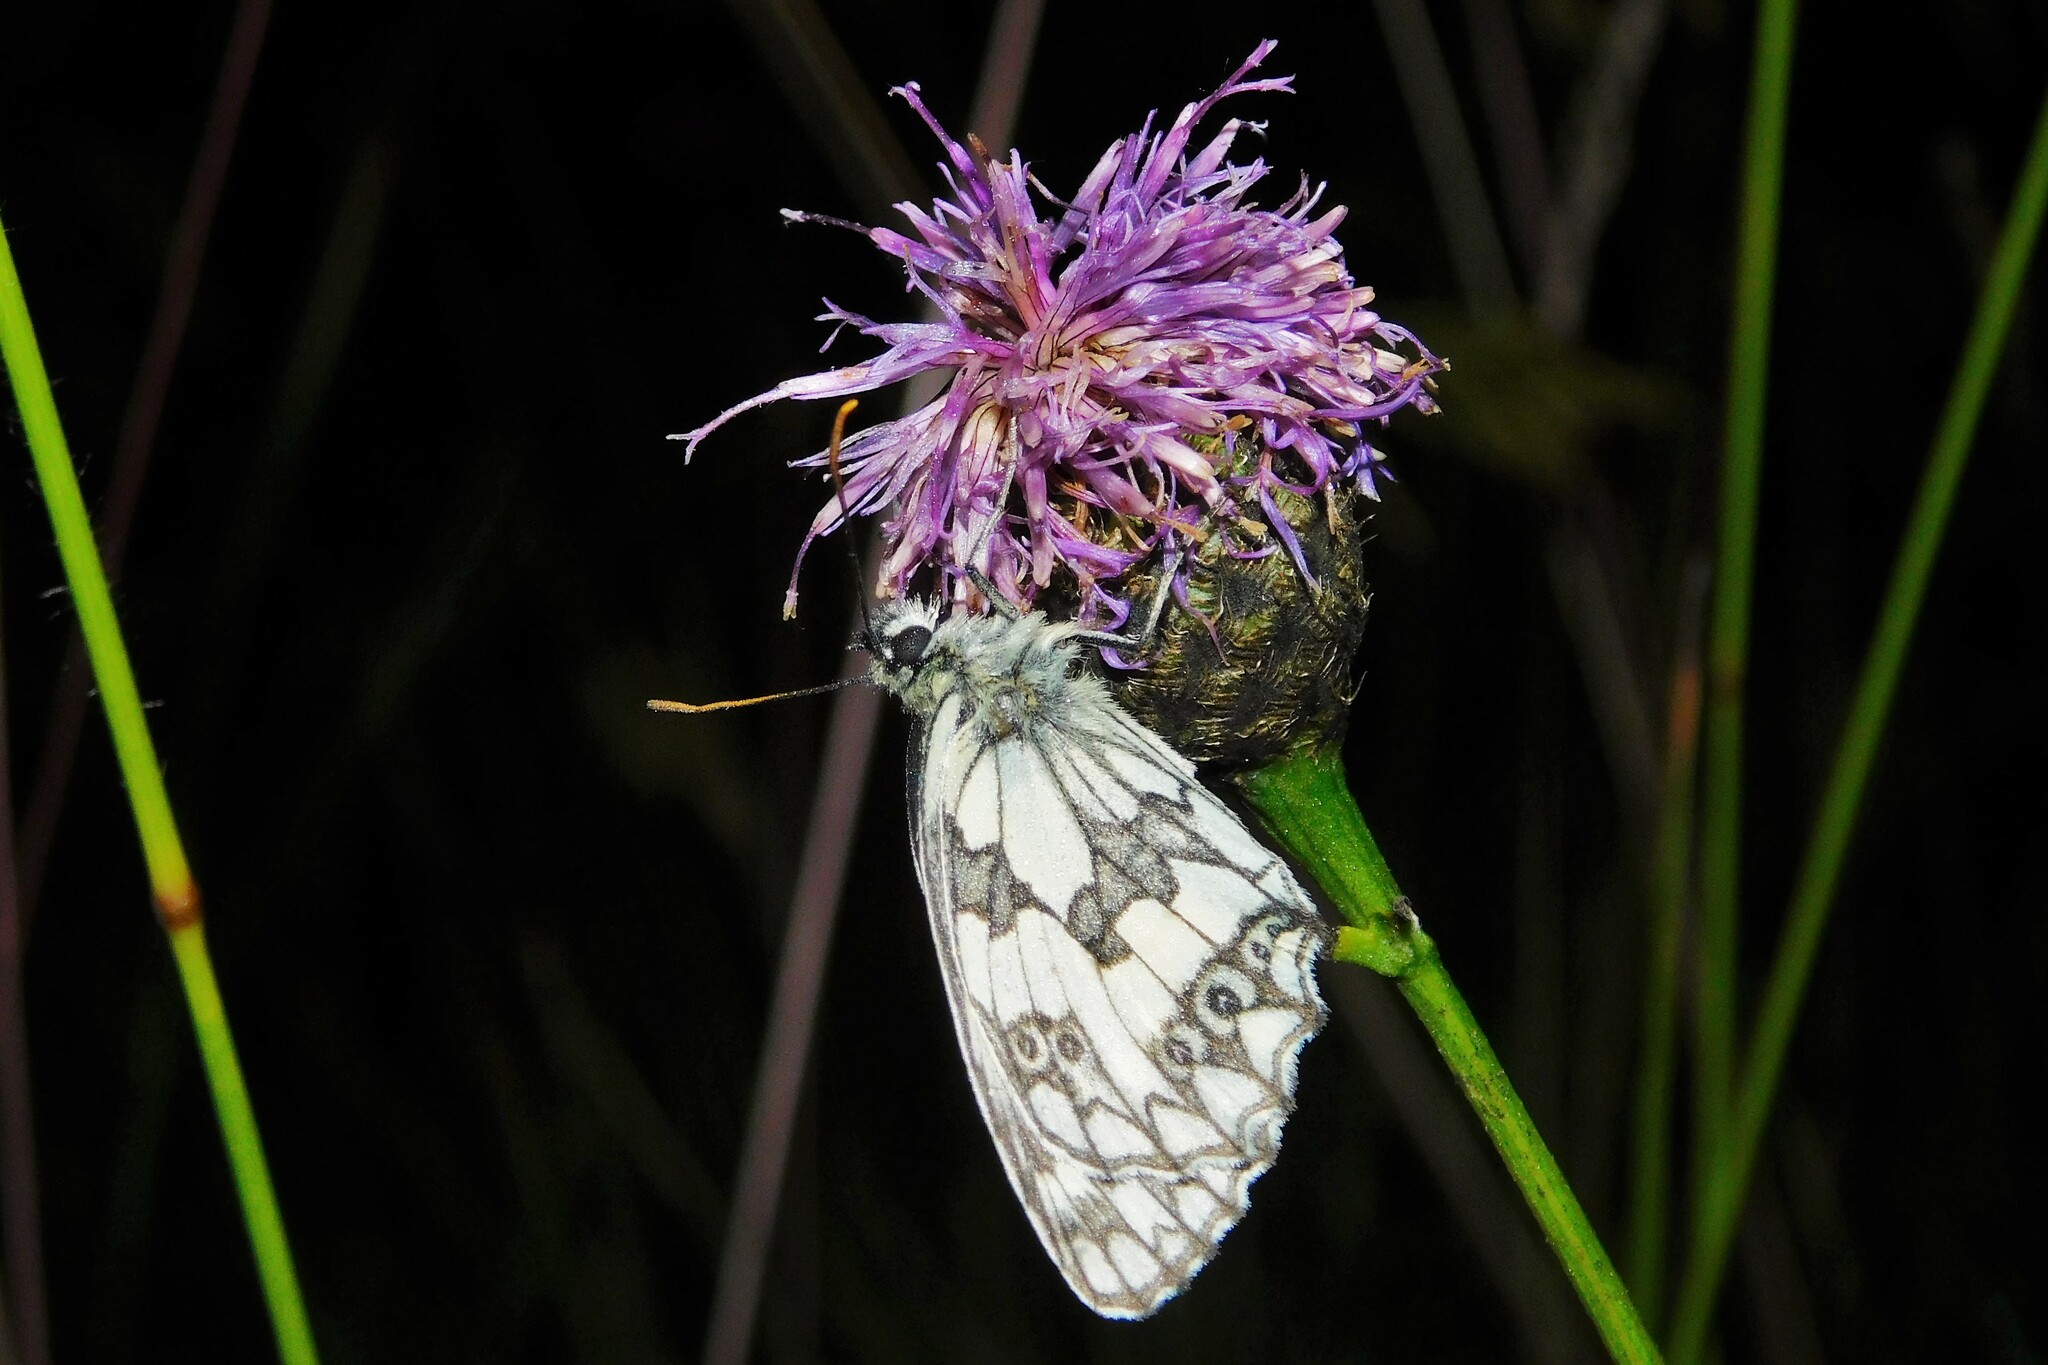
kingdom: Animalia
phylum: Arthropoda
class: Insecta
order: Lepidoptera
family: Nymphalidae
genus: Melanargia
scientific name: Melanargia galathea
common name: Marbled white
